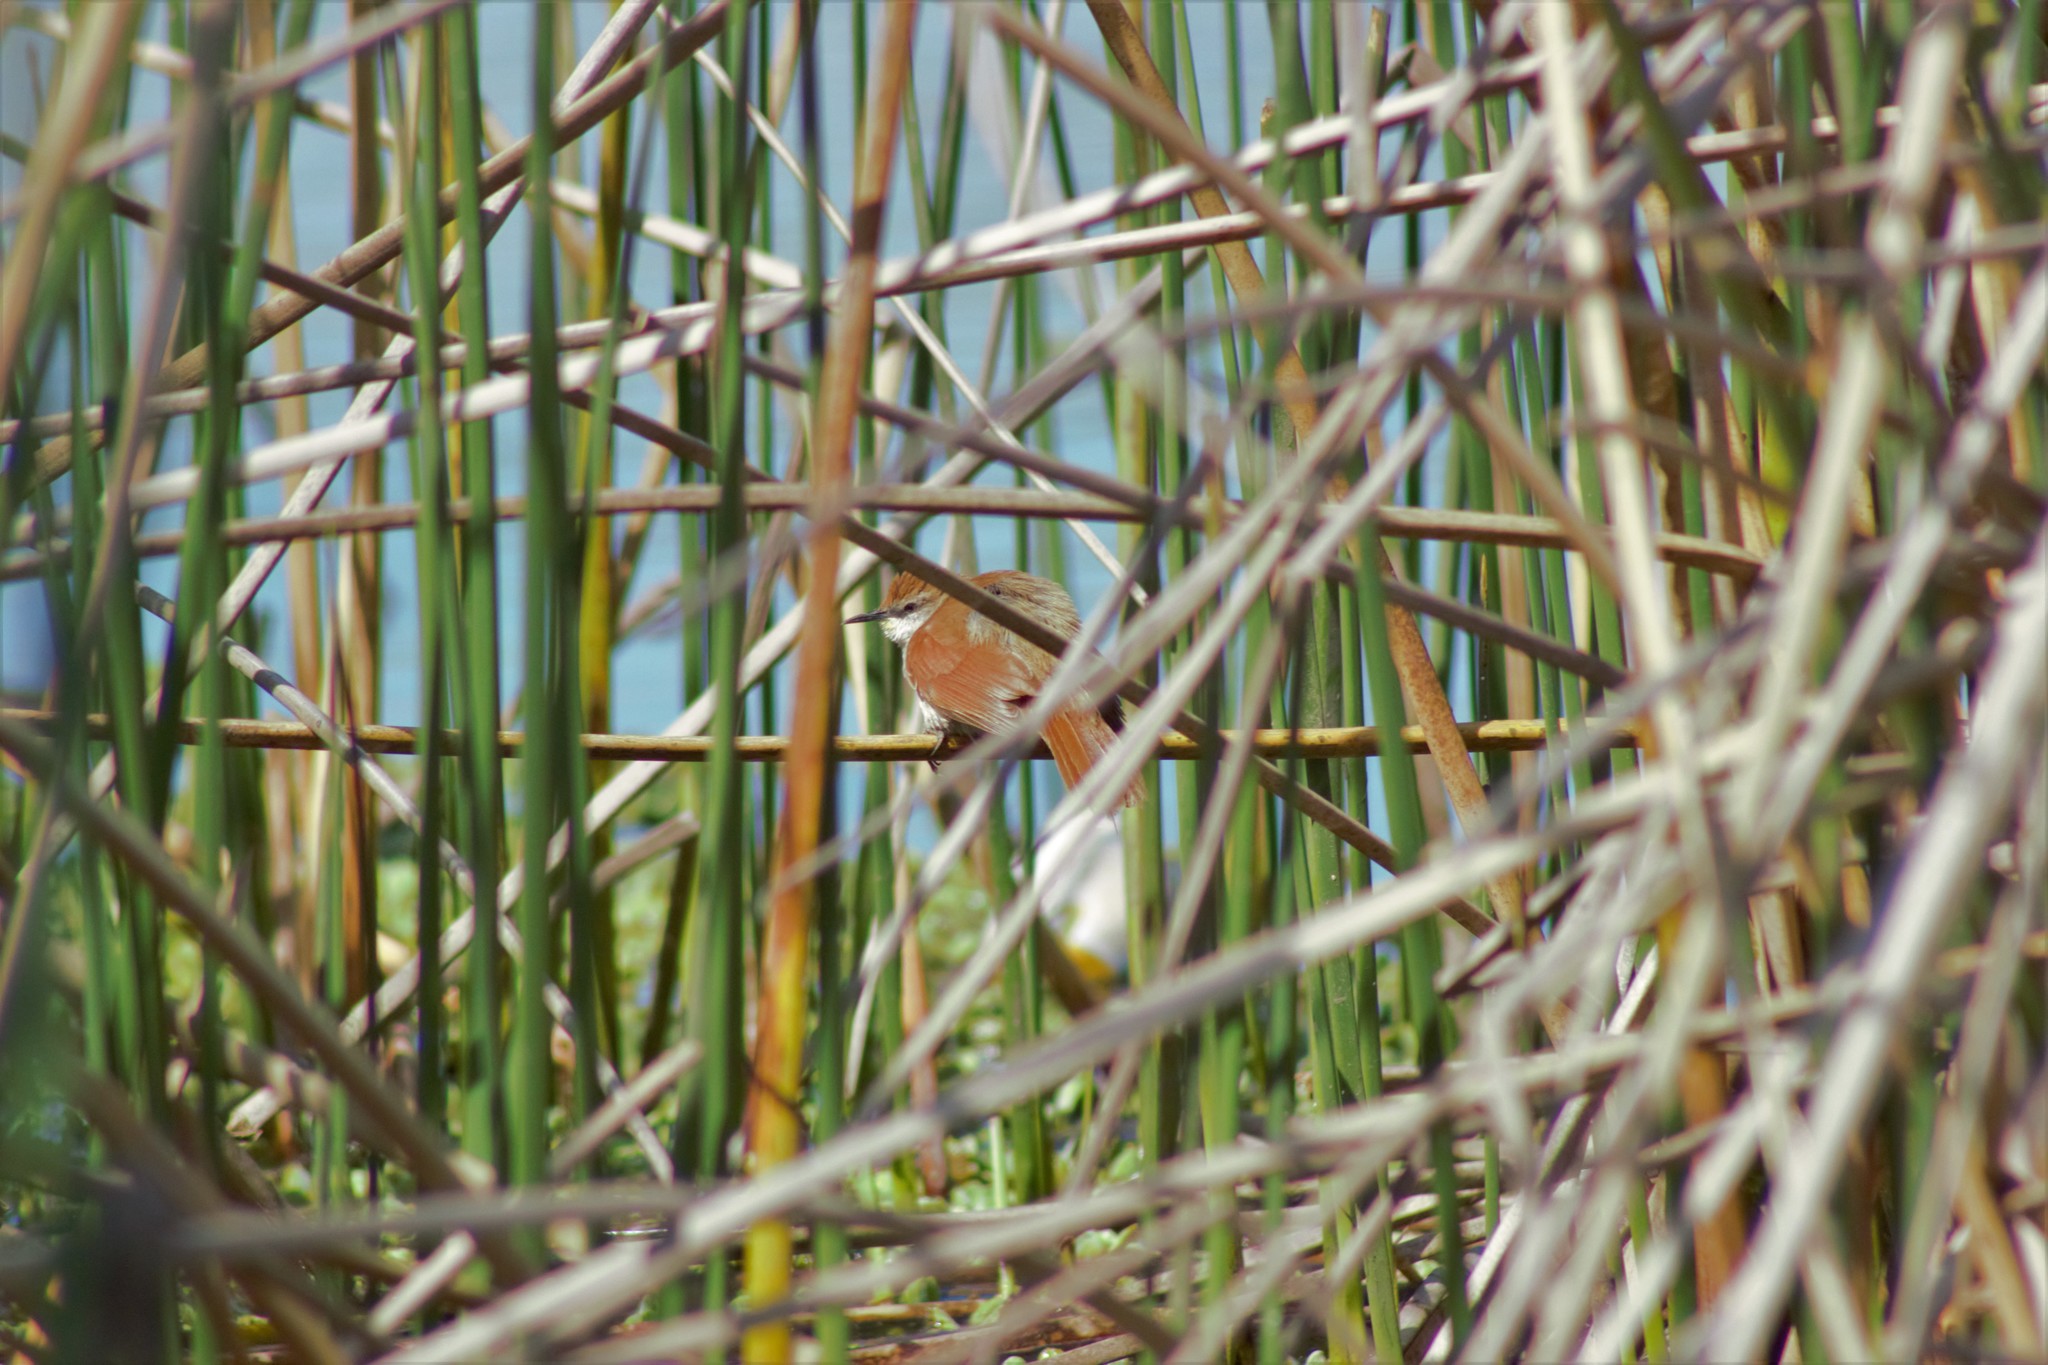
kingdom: Animalia
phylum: Chordata
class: Aves
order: Passeriformes
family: Furnariidae
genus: Certhiaxis
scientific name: Certhiaxis cinnamomeus
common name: Yellow-chinned spinetail
